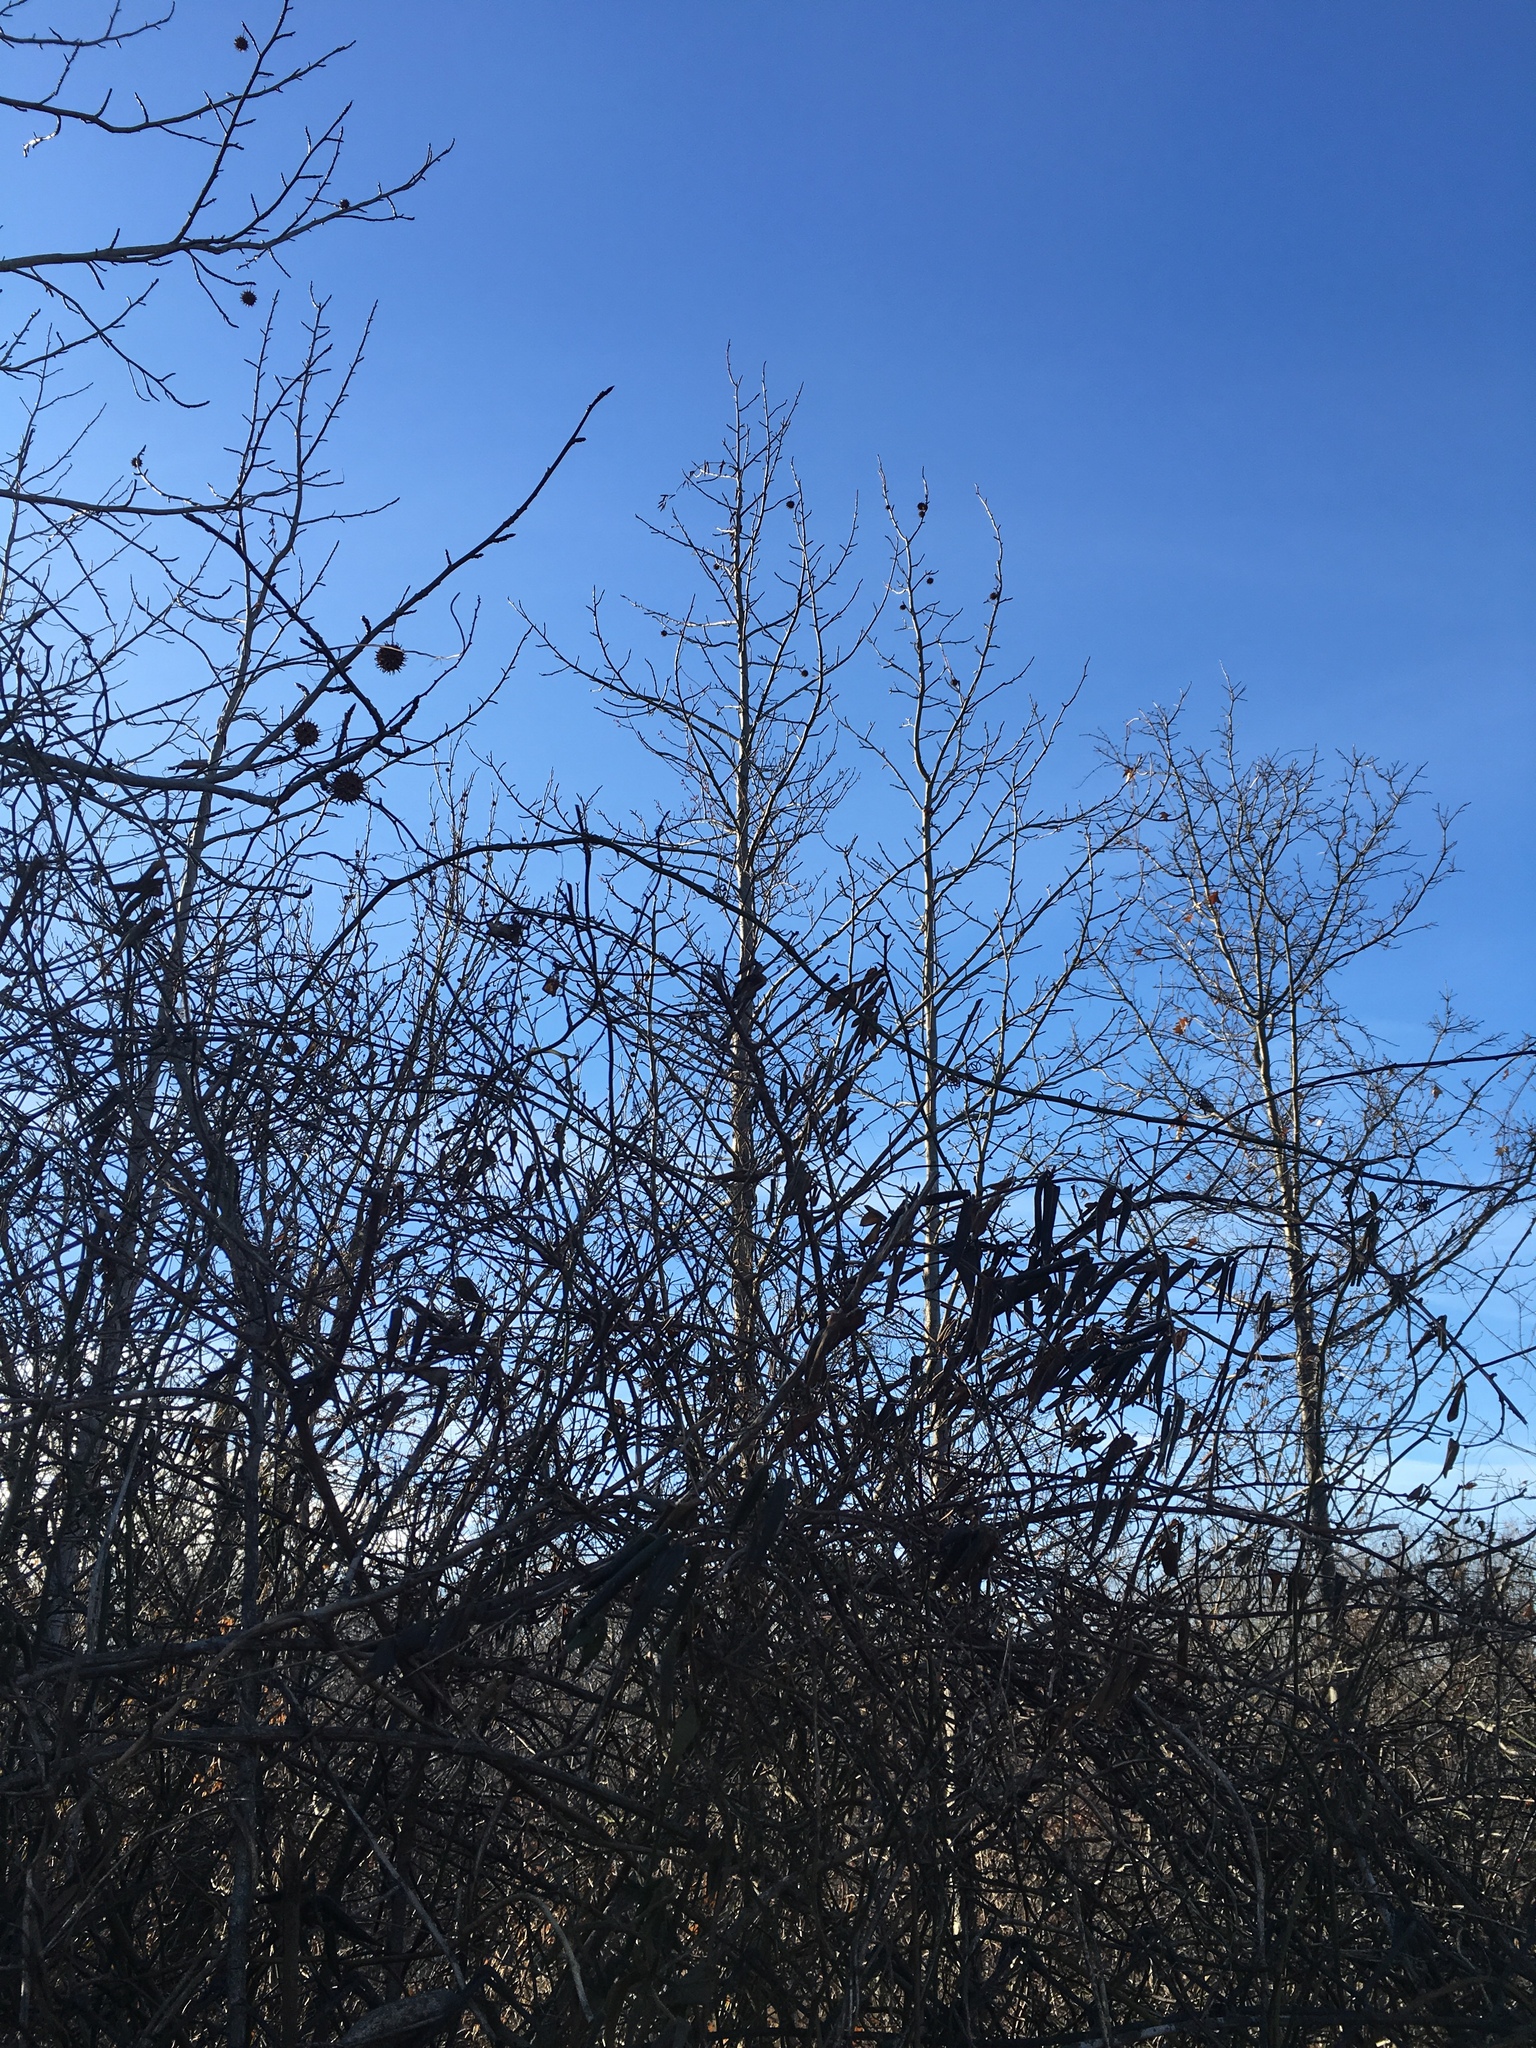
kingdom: Plantae
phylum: Tracheophyta
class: Magnoliopsida
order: Saxifragales
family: Altingiaceae
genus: Liquidambar
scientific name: Liquidambar styraciflua
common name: Sweet gum
